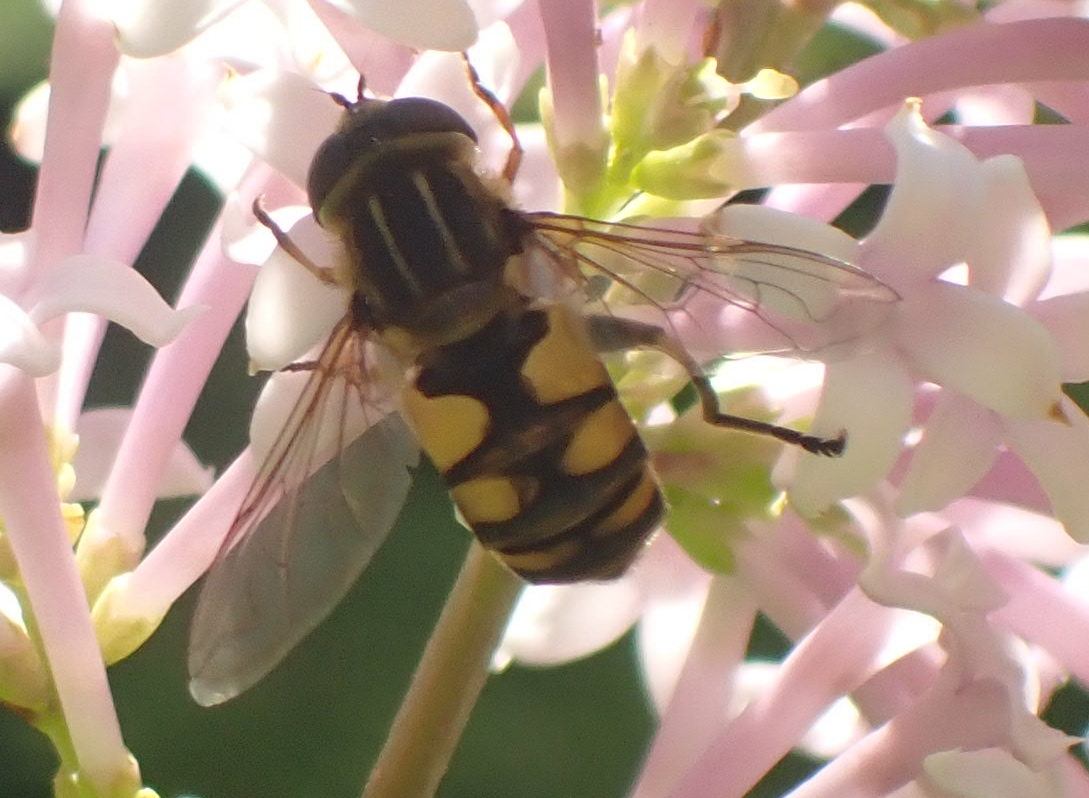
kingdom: Animalia
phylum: Arthropoda
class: Insecta
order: Diptera
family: Syrphidae
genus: Helophilus
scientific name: Helophilus hybridus
